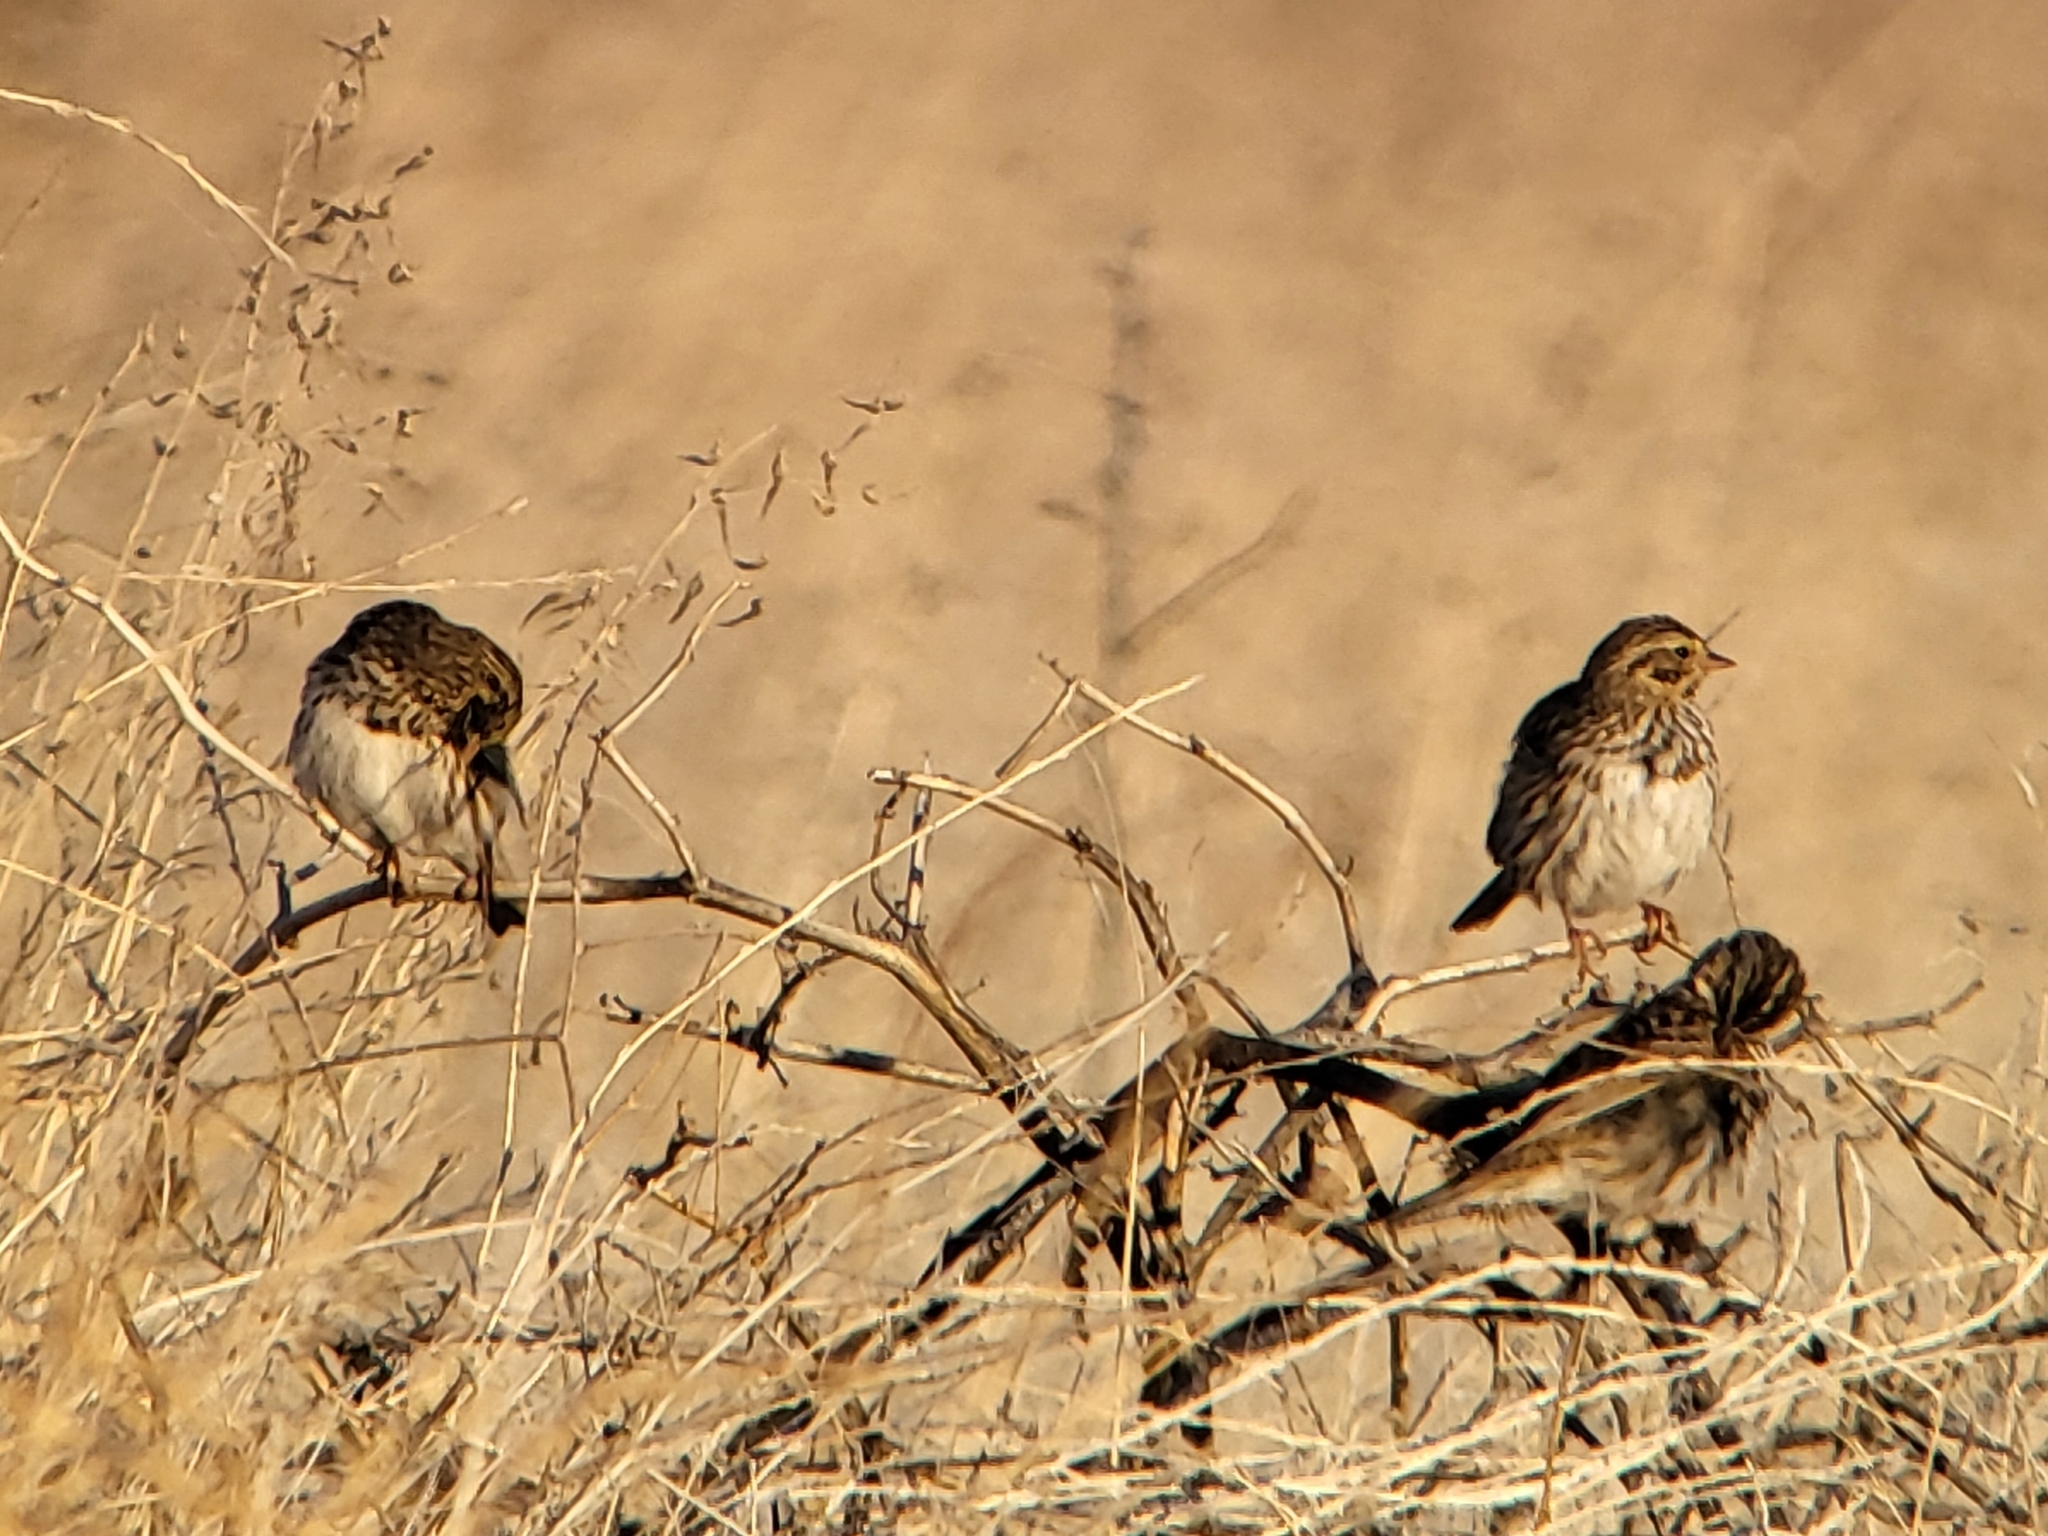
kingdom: Animalia
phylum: Chordata
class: Aves
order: Passeriformes
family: Passerellidae
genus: Passerculus
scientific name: Passerculus sandwichensis
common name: Savannah sparrow
